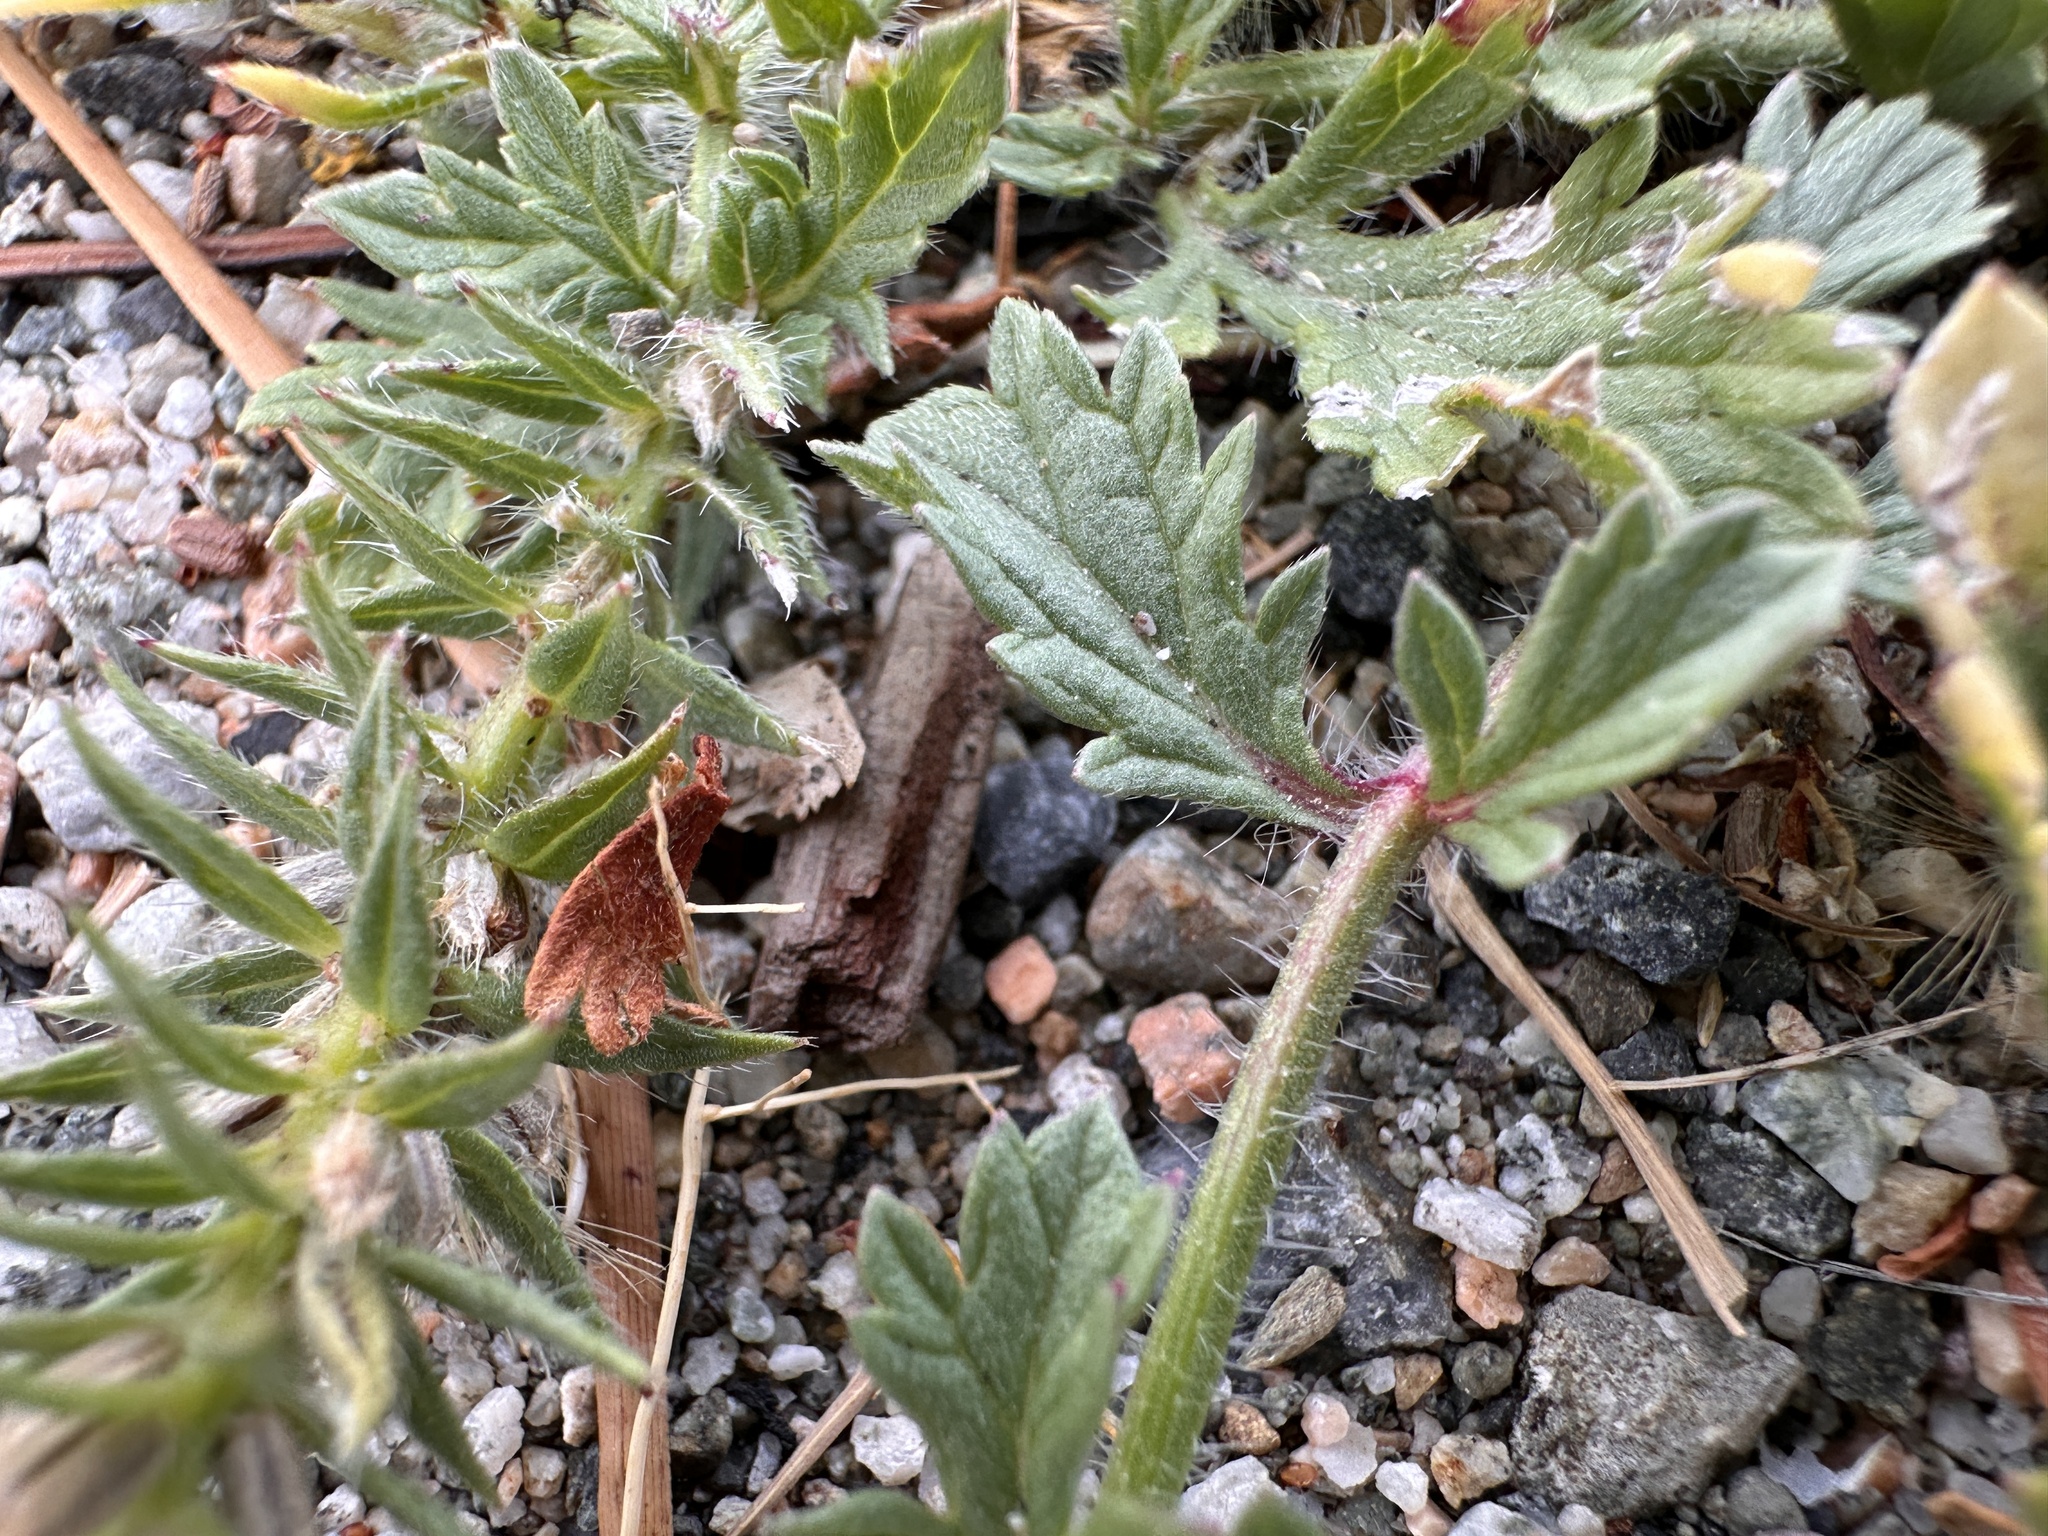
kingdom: Plantae
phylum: Tracheophyta
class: Magnoliopsida
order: Lamiales
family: Verbenaceae
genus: Verbena
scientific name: Verbena bracteata
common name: Bracted vervain
